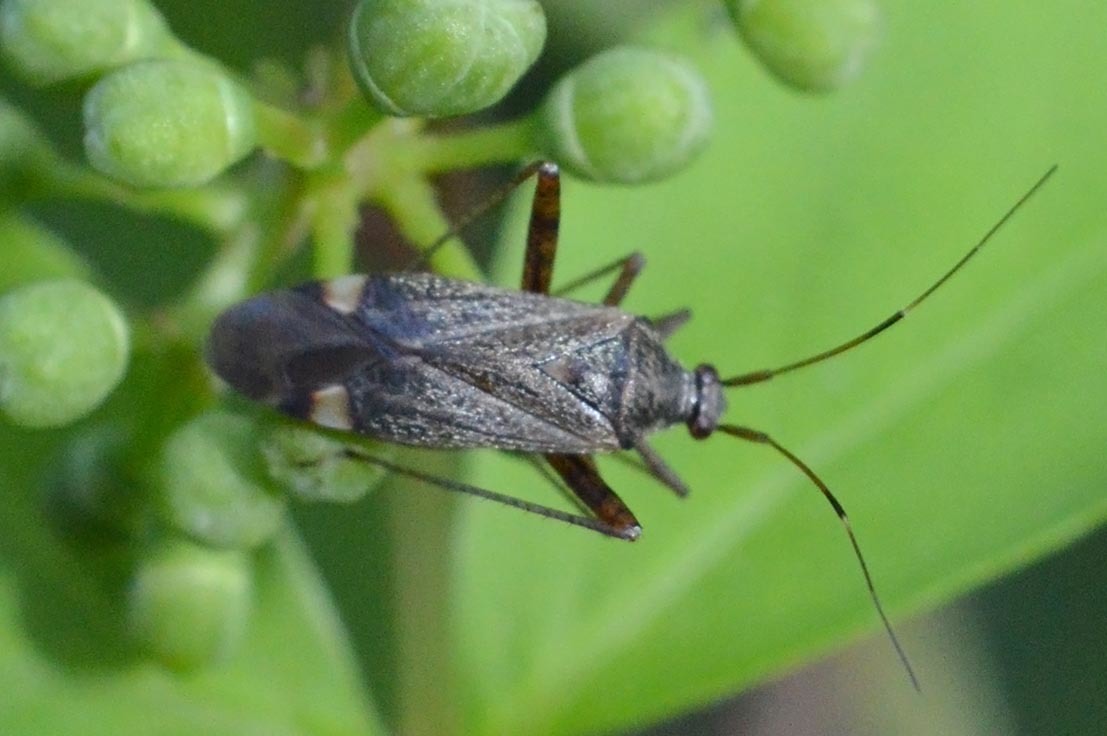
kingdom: Animalia
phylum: Arthropoda
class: Insecta
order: Hemiptera
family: Miridae
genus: Closterotomus
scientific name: Closterotomus fulvomaculatus
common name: Spotted plant bug
